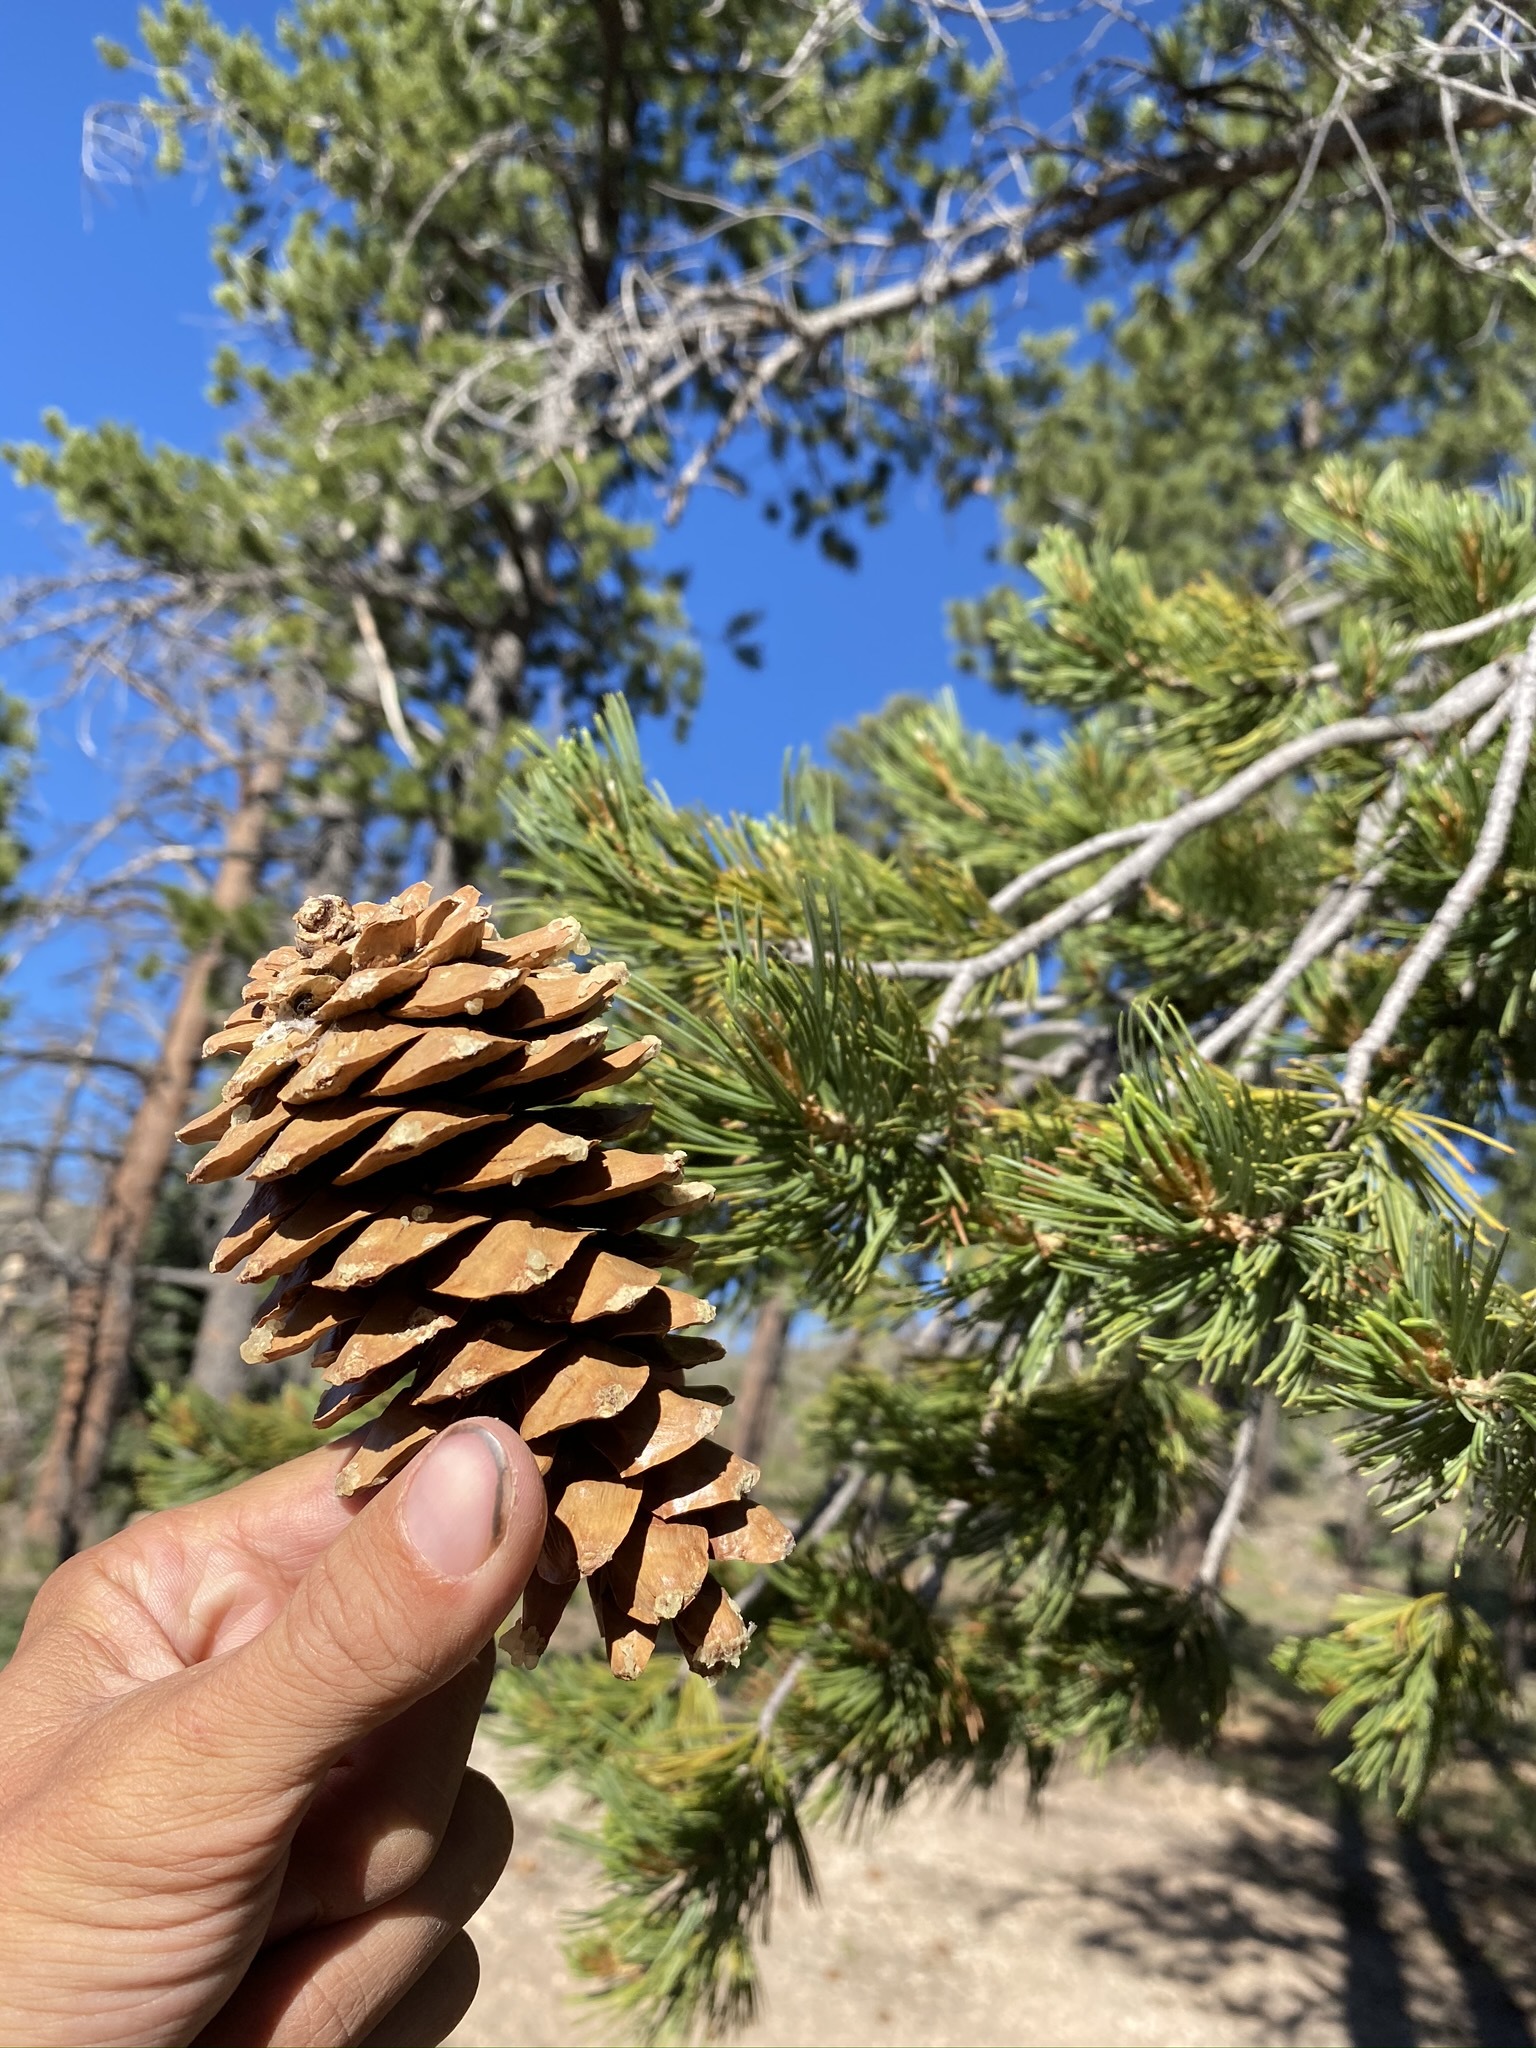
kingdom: Plantae
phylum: Tracheophyta
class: Pinopsida
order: Pinales
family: Pinaceae
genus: Pinus
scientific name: Pinus flexilis
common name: Limber pine
